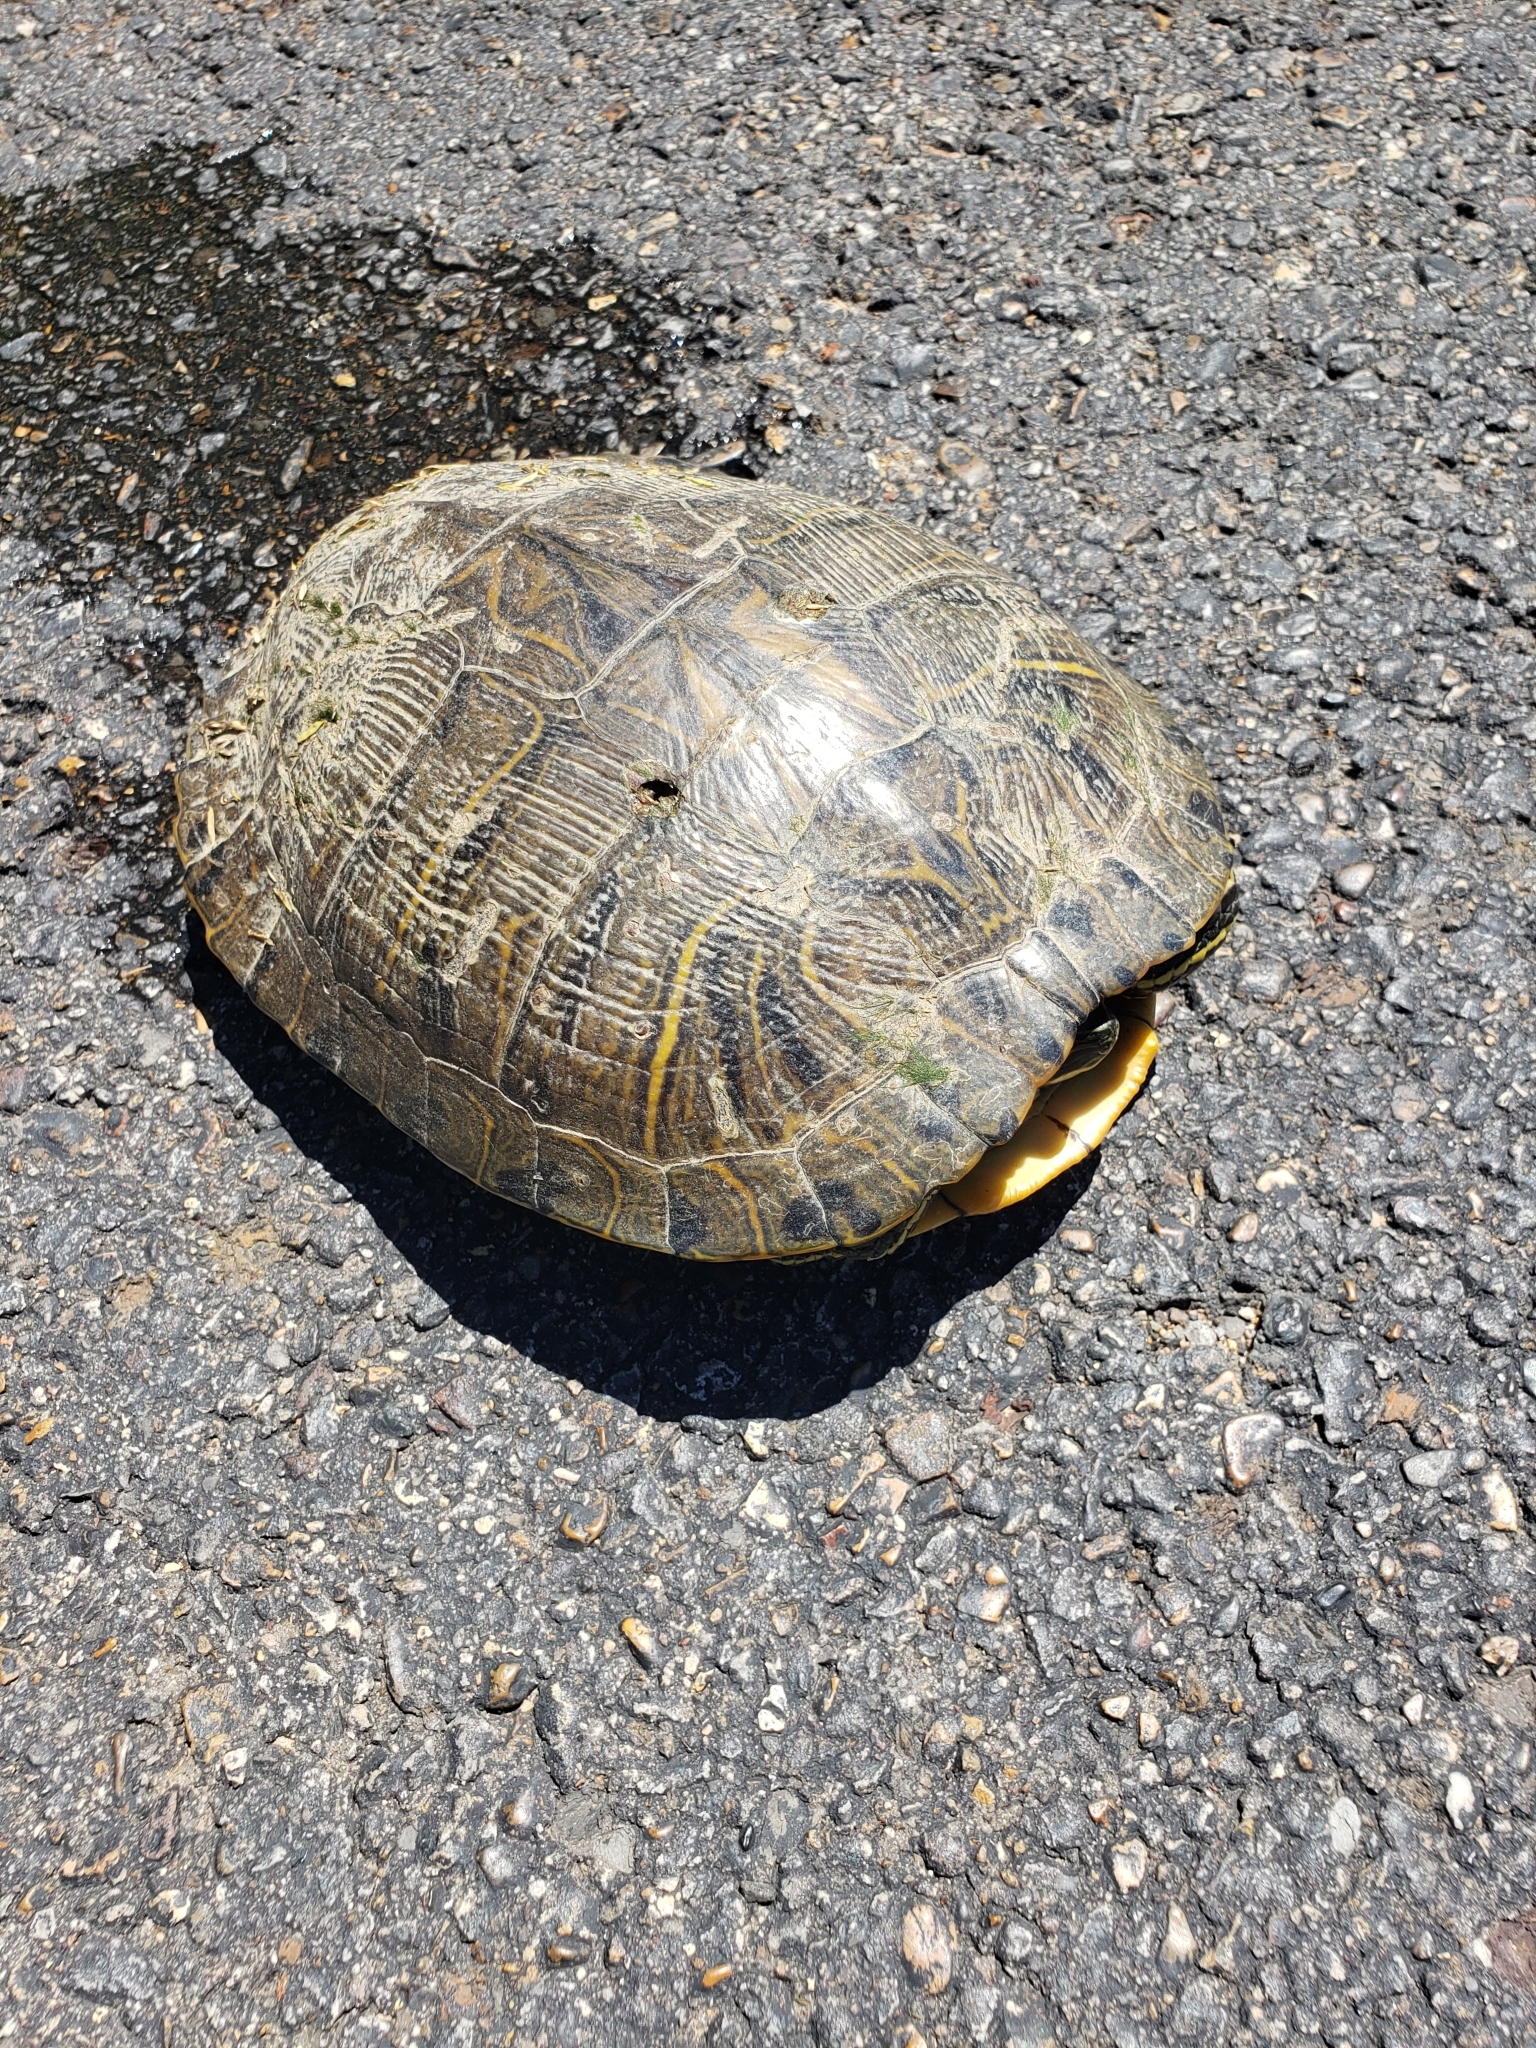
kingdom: Animalia
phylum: Chordata
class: Testudines
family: Emydidae
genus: Trachemys
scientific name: Trachemys scripta
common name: Slider
